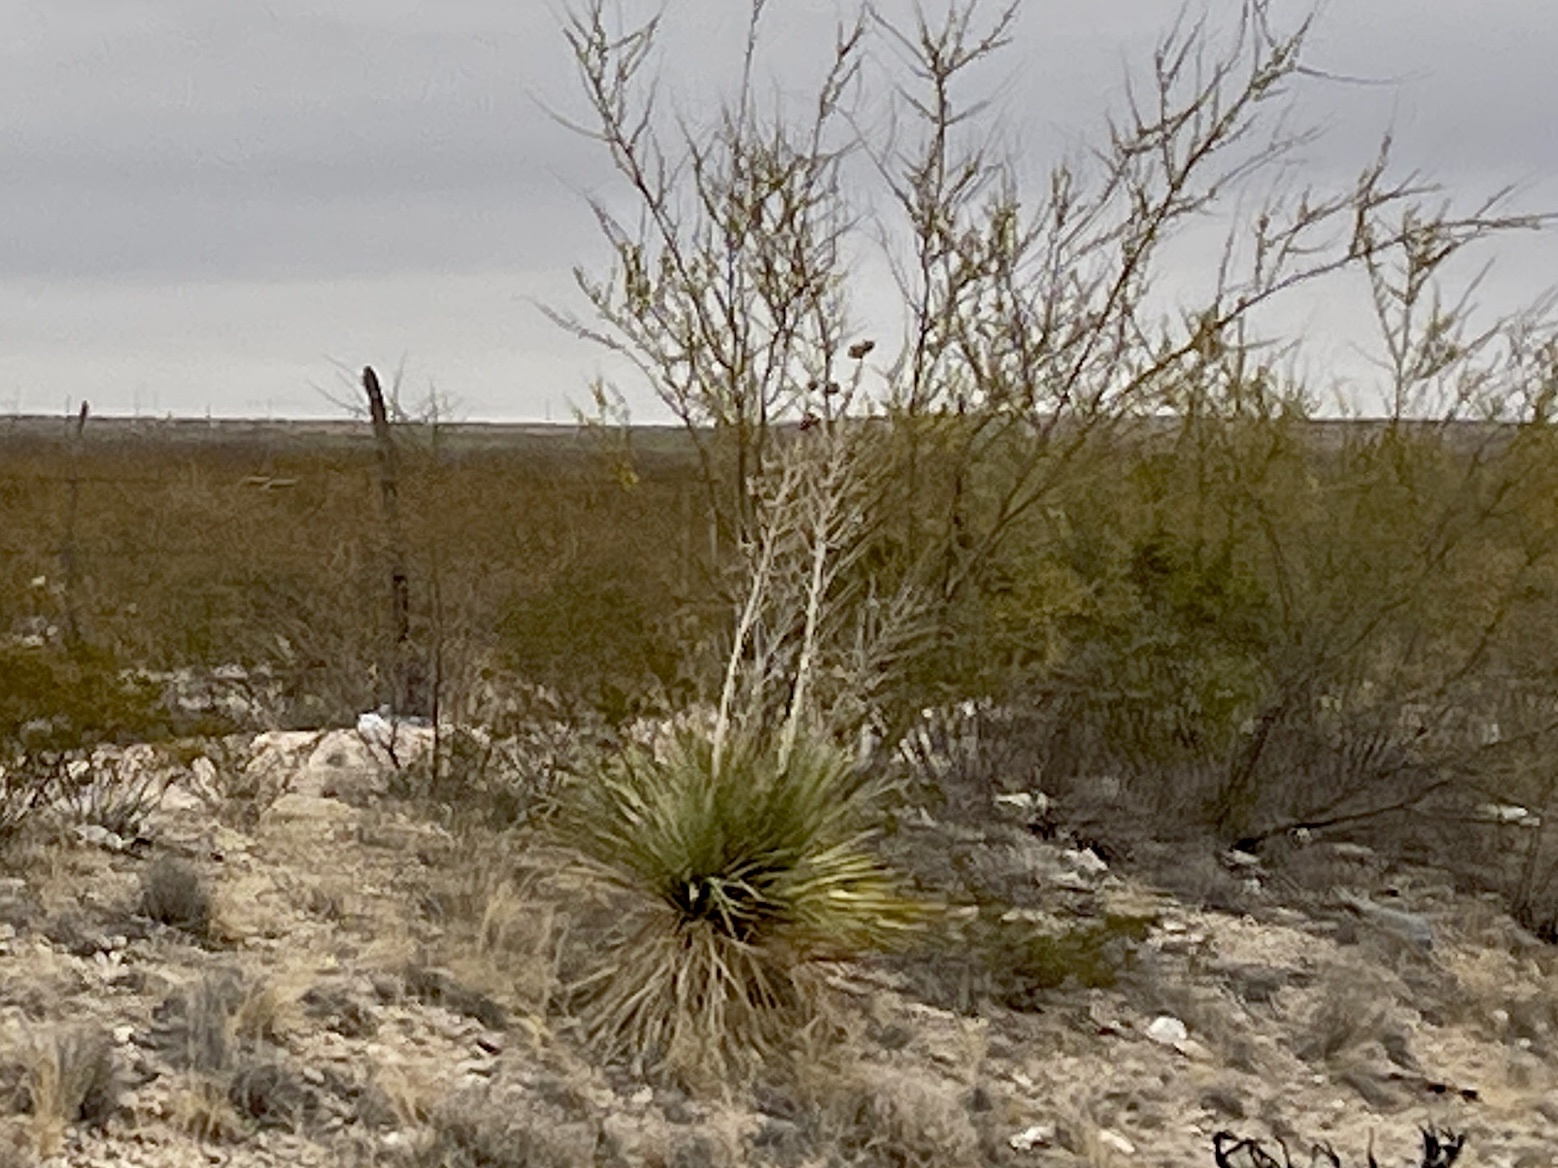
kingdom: Plantae
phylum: Tracheophyta
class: Liliopsida
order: Asparagales
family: Asparagaceae
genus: Yucca
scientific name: Yucca elata
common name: Palmella
